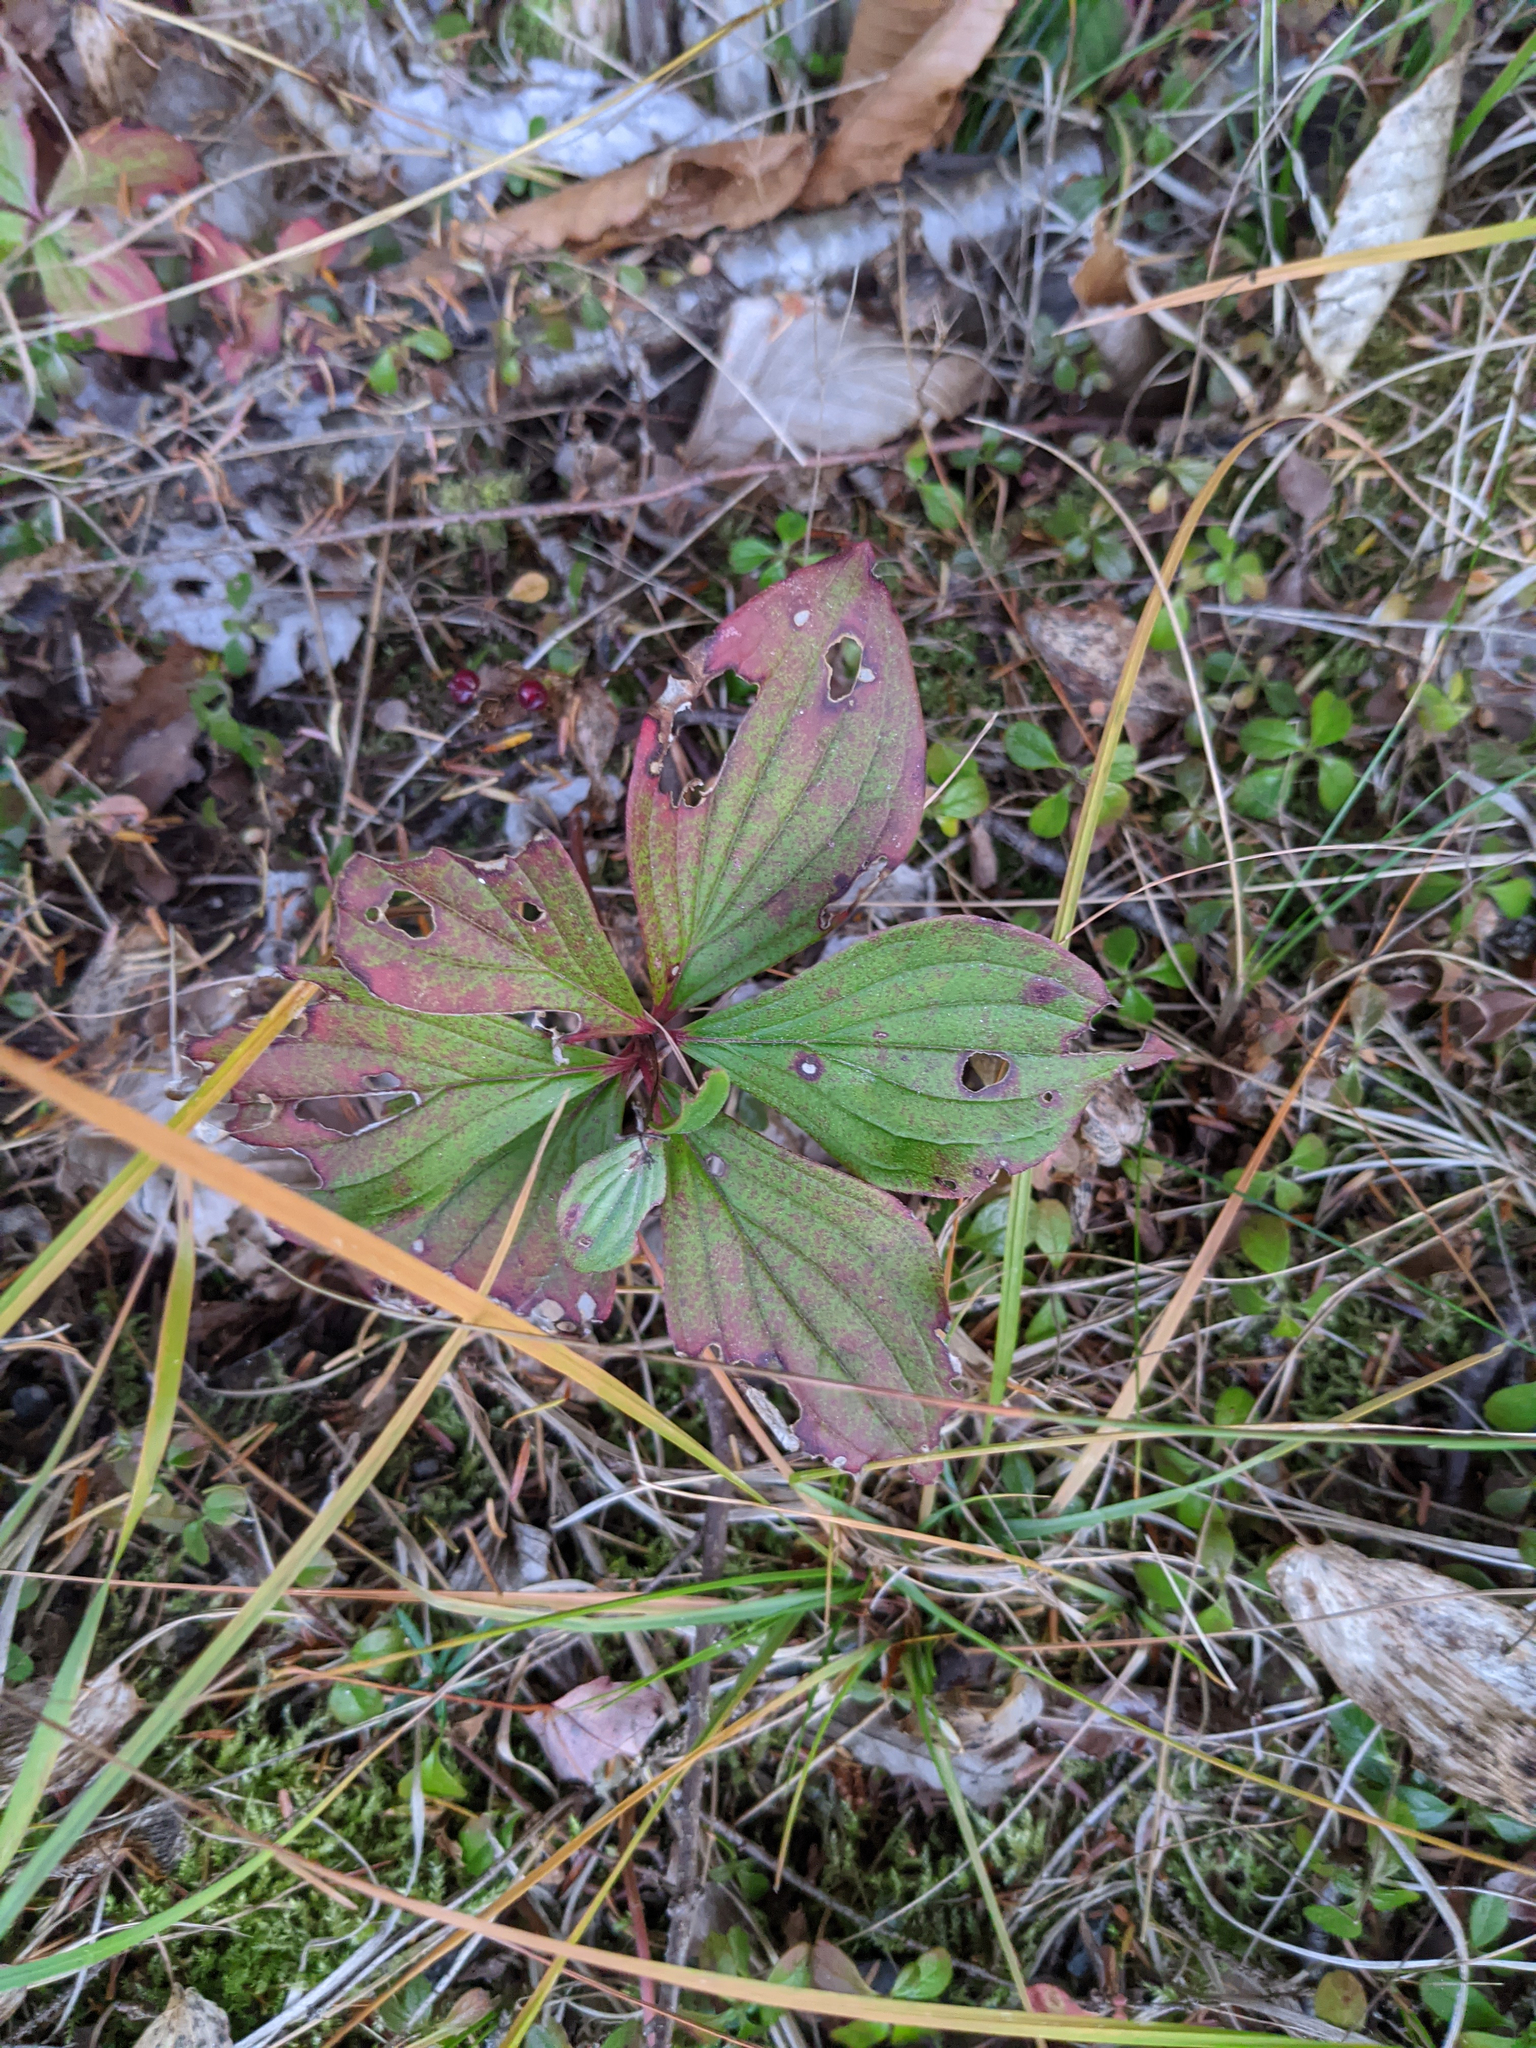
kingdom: Plantae
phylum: Tracheophyta
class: Magnoliopsida
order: Cornales
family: Cornaceae
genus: Cornus
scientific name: Cornus canadensis
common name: Creeping dogwood
